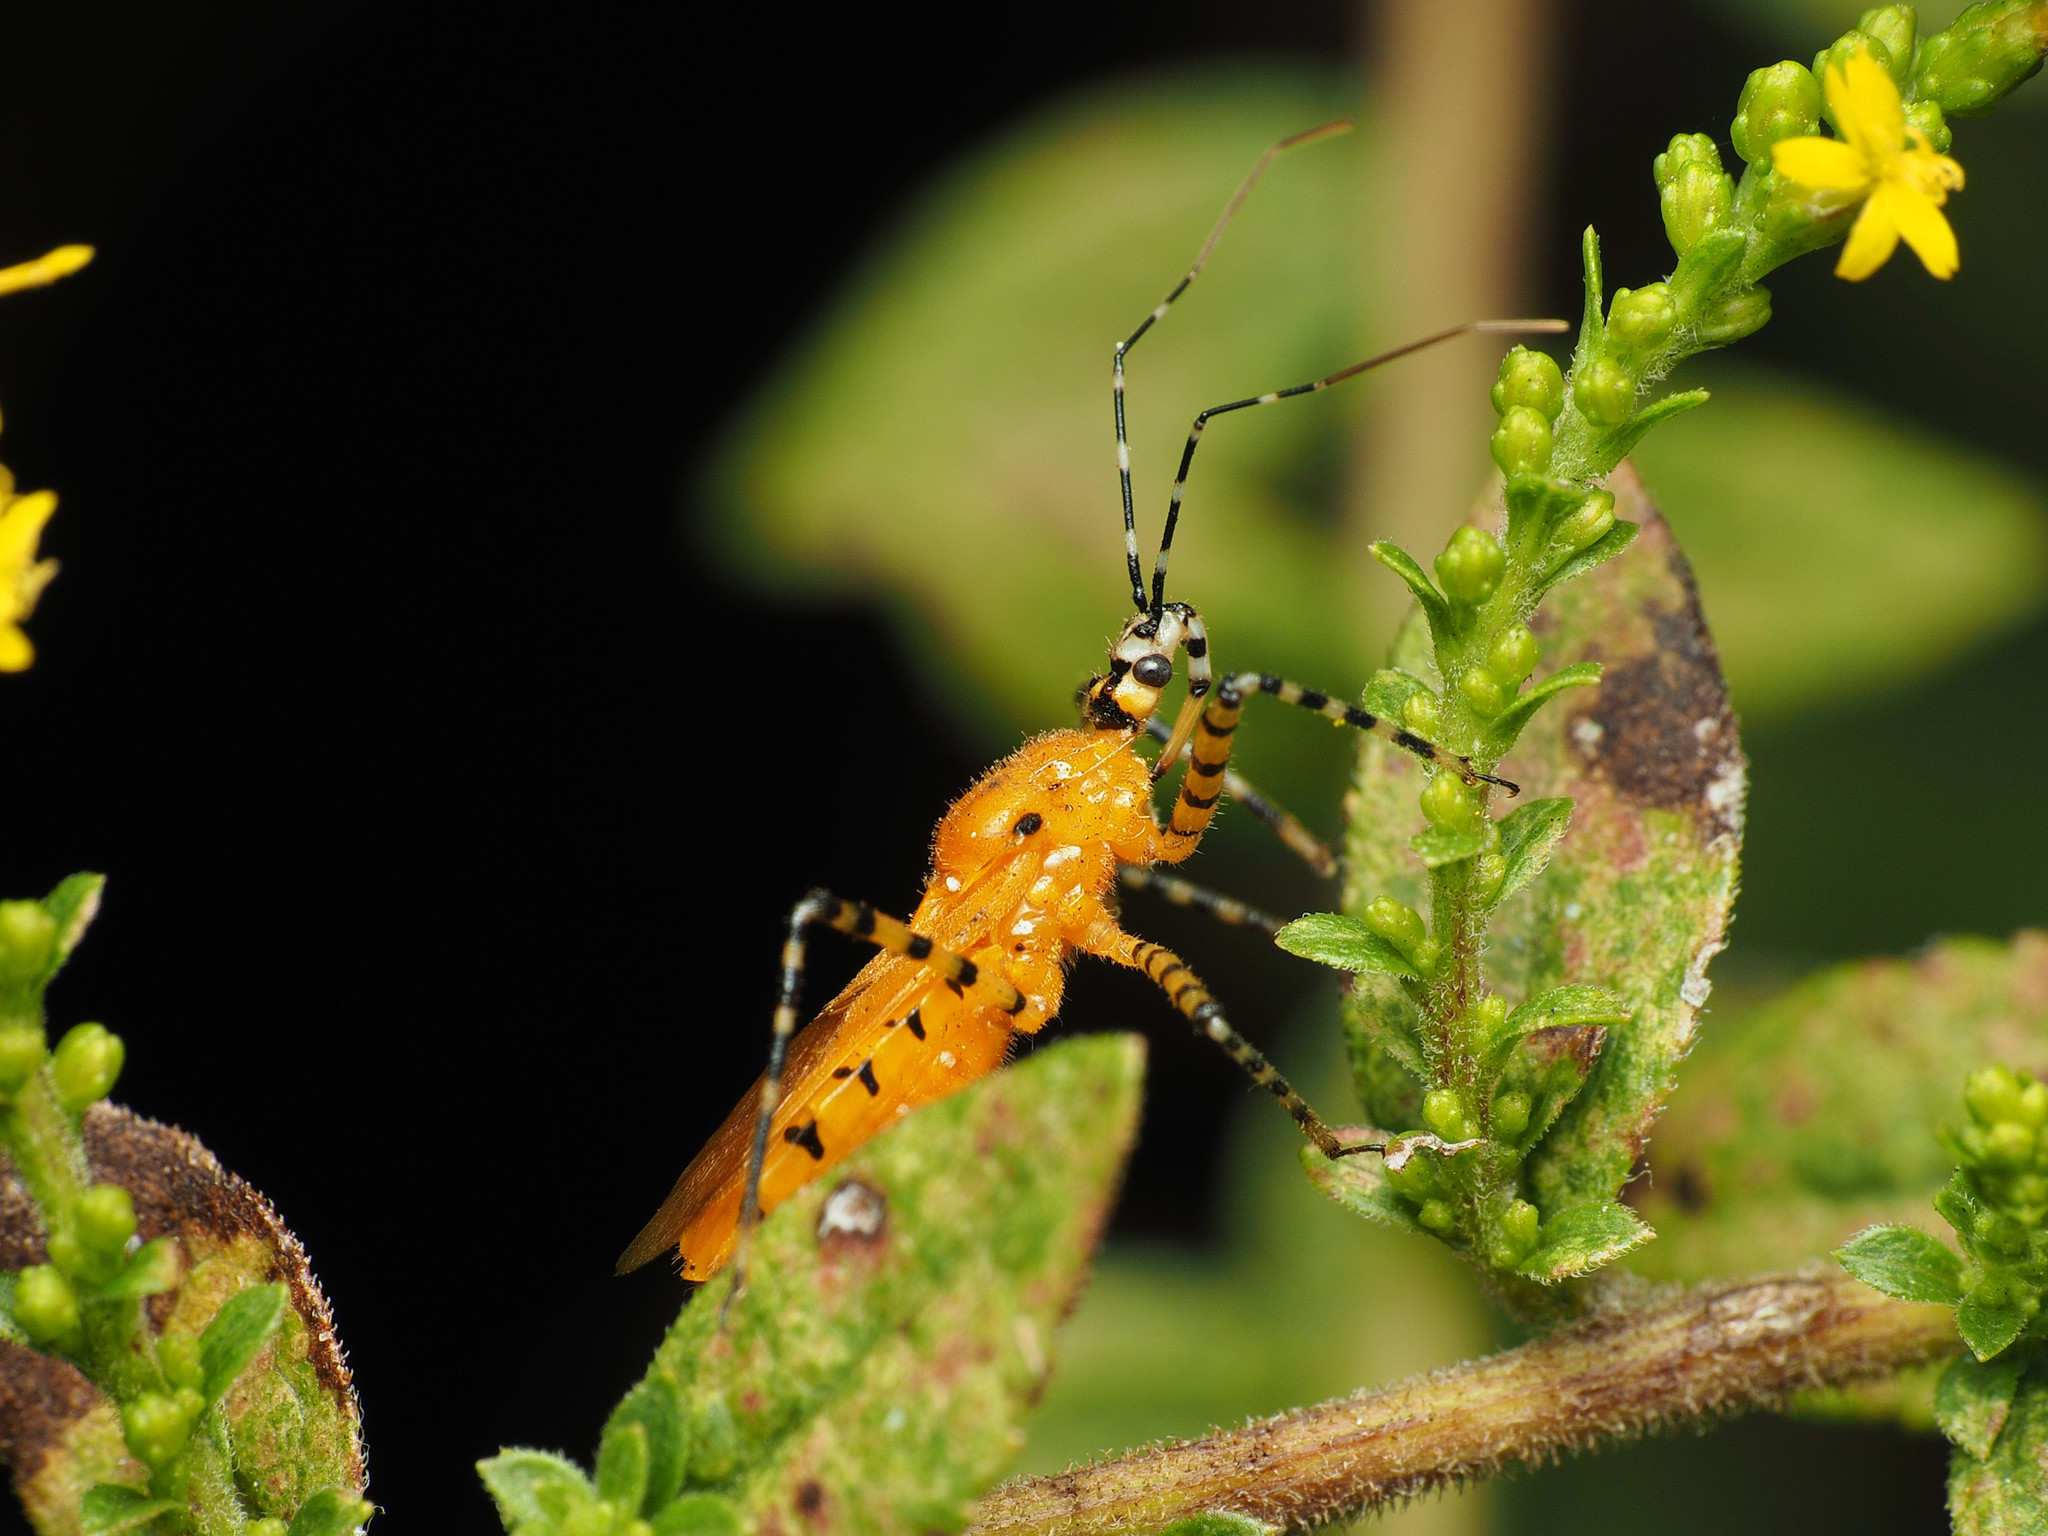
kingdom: Animalia
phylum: Arthropoda
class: Insecta
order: Hemiptera
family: Reduviidae
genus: Pselliopus
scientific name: Pselliopus barberi
